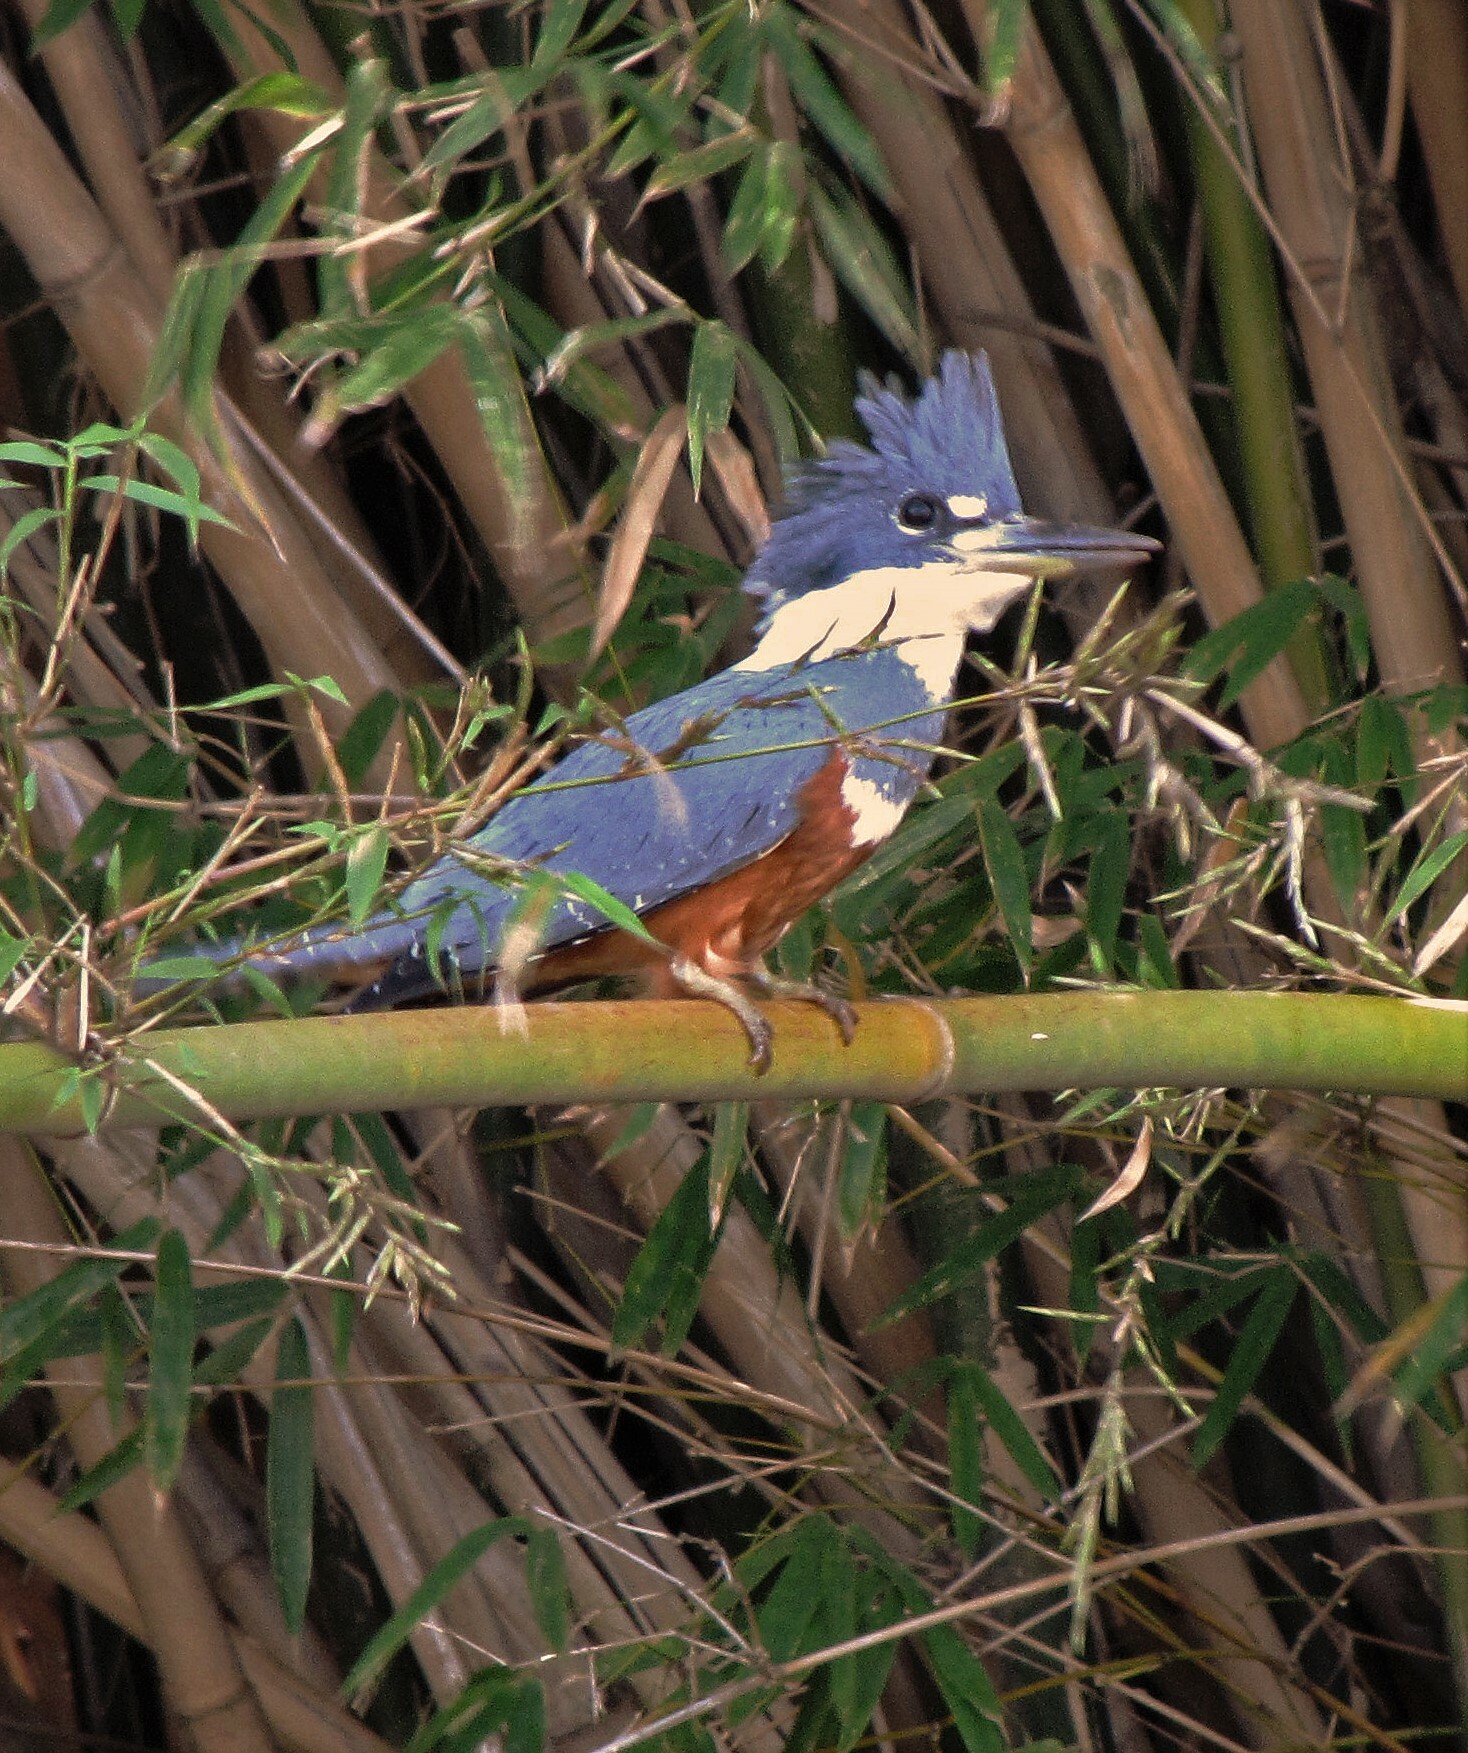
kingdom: Animalia
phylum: Chordata
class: Aves
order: Coraciiformes
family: Alcedinidae
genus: Megaceryle
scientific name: Megaceryle torquata
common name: Ringed kingfisher
